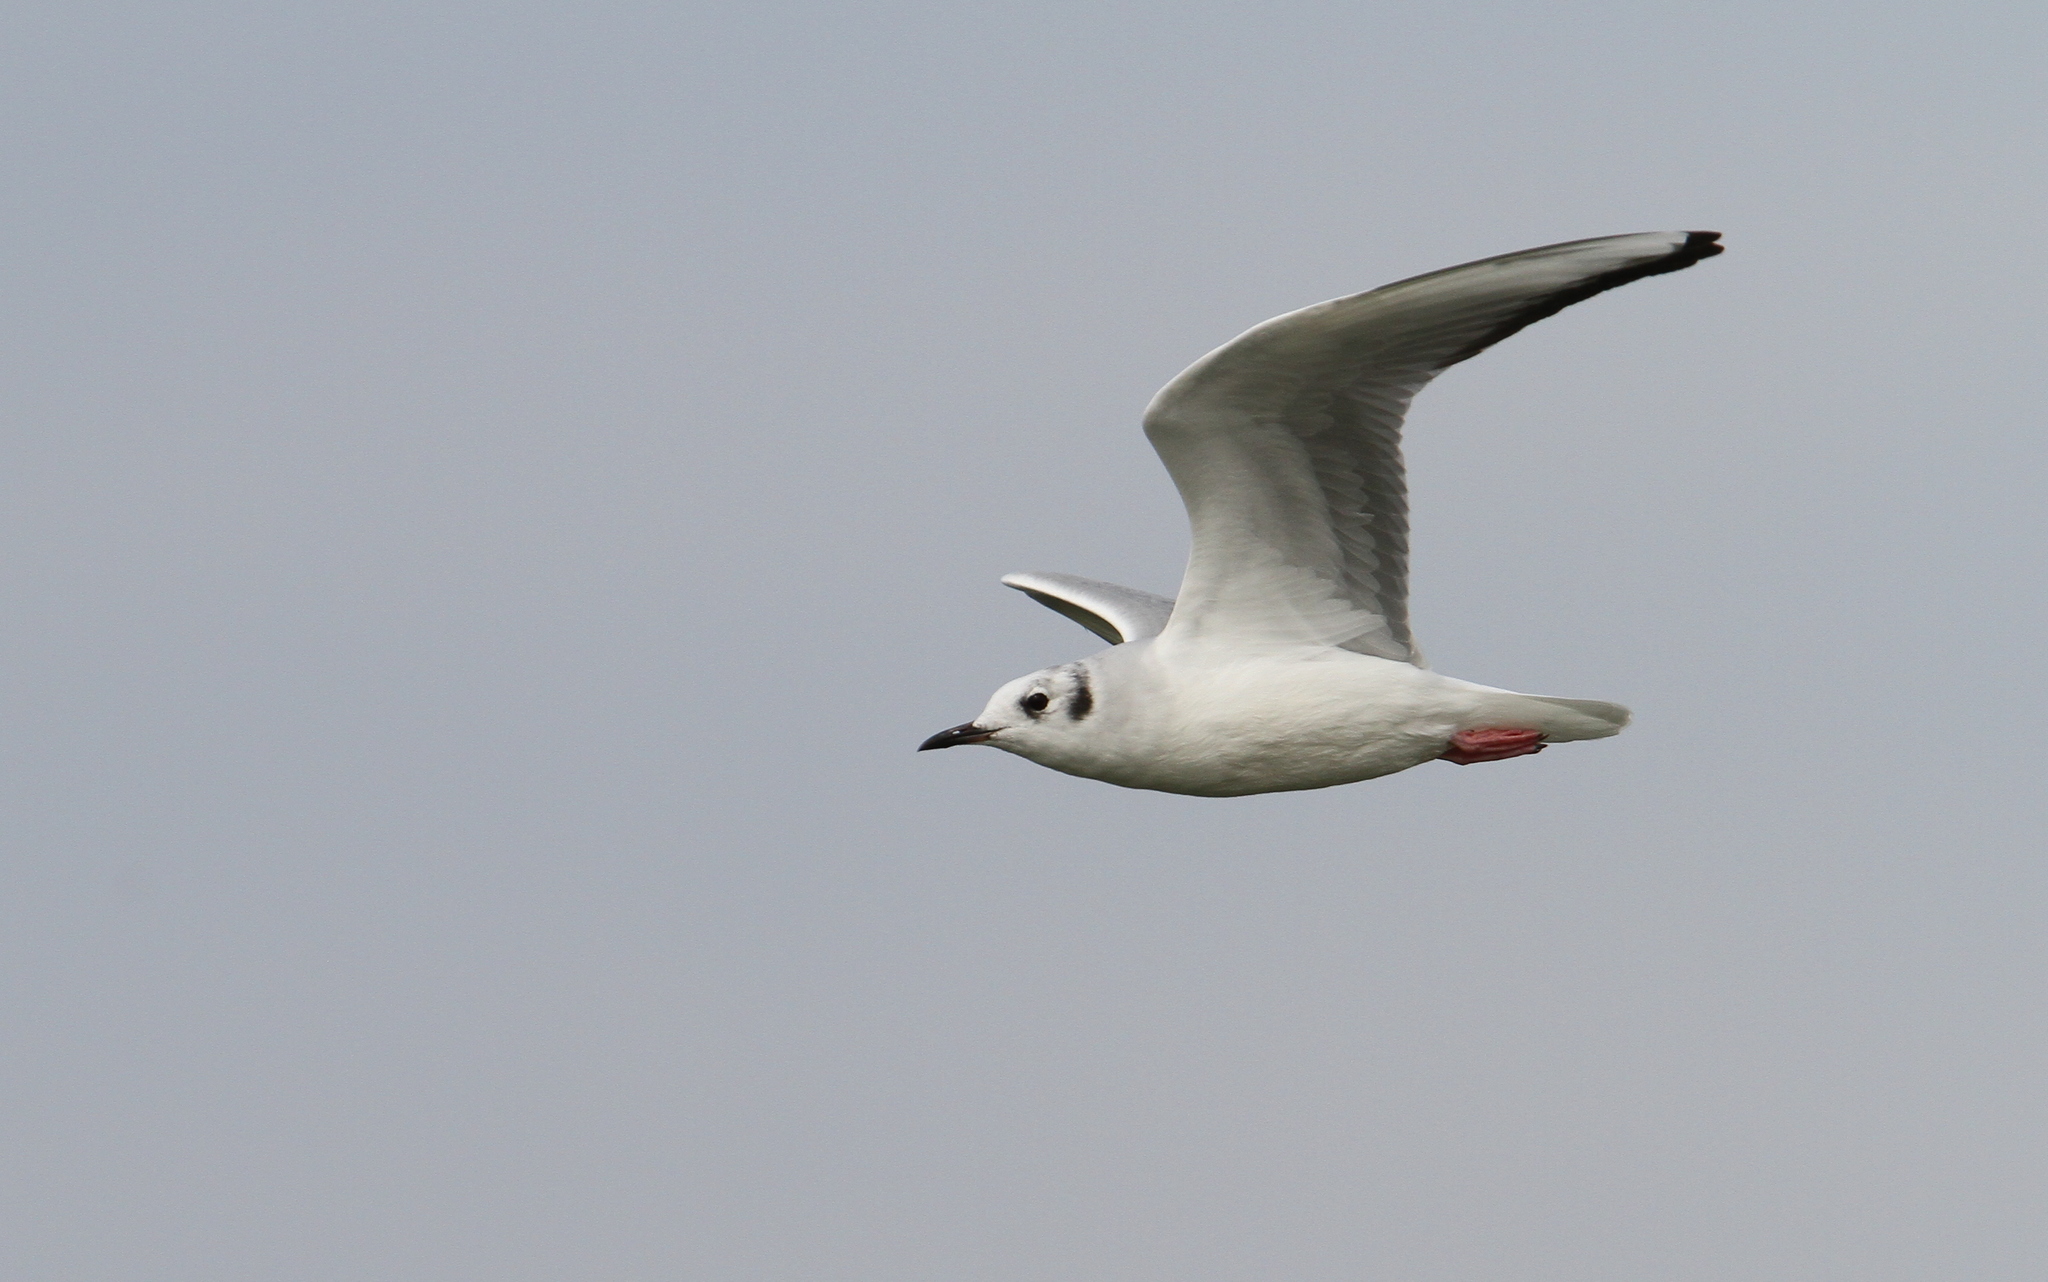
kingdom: Animalia
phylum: Chordata
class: Aves
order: Charadriiformes
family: Laridae
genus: Chroicocephalus
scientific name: Chroicocephalus philadelphia
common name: Bonaparte's gull
